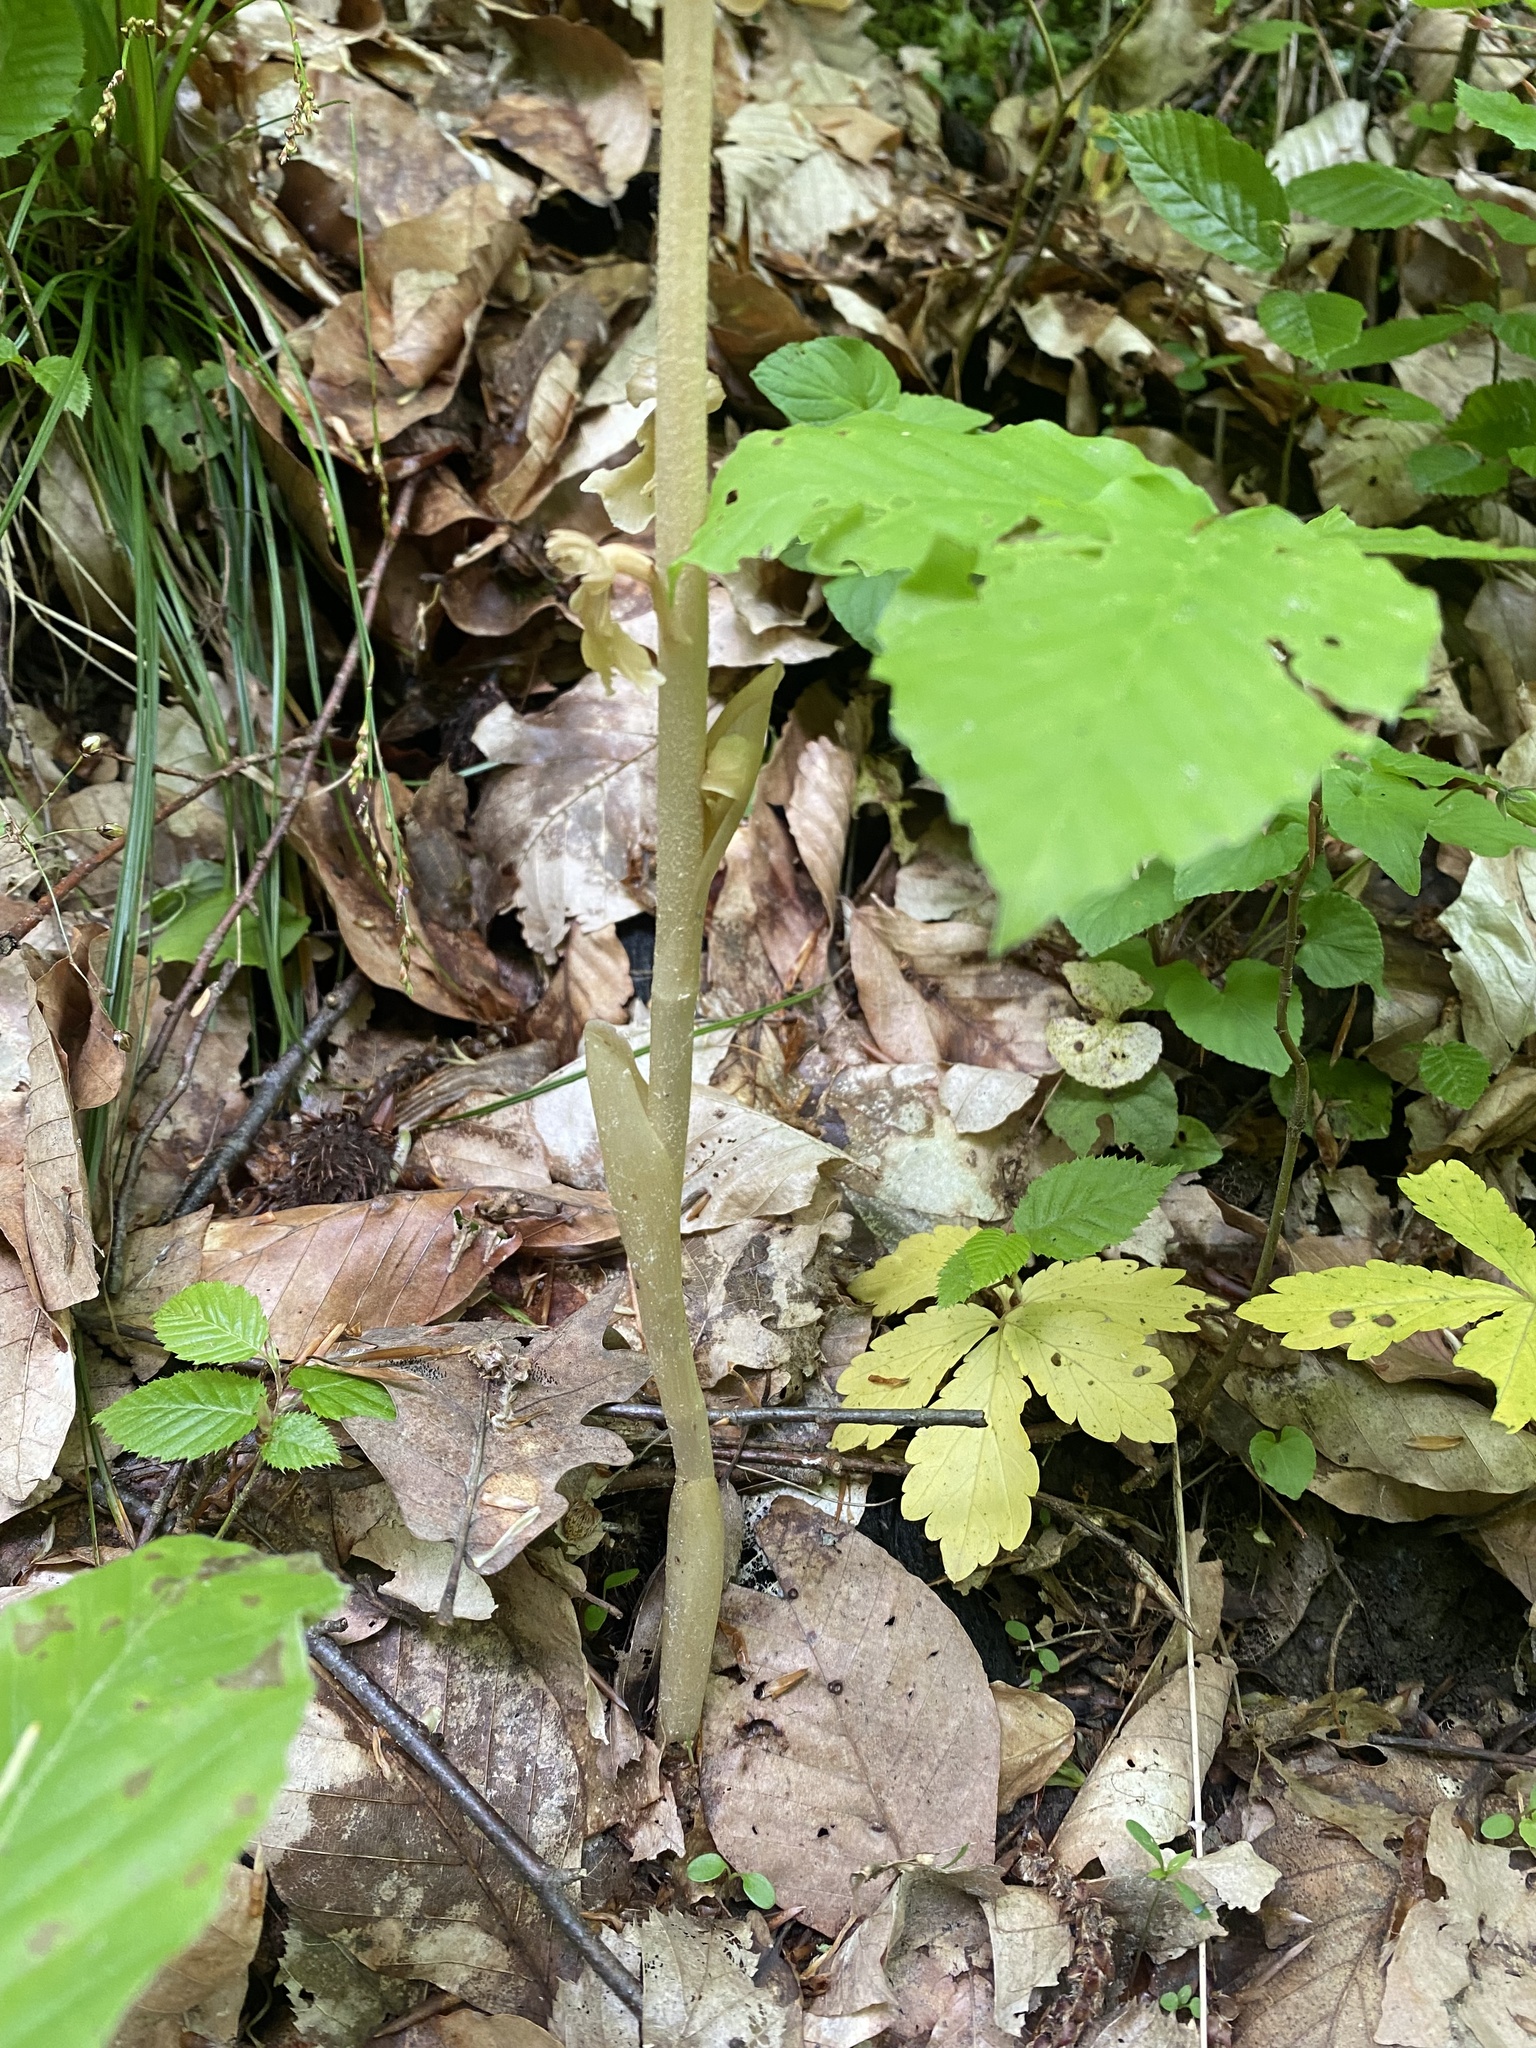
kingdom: Plantae
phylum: Tracheophyta
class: Liliopsida
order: Asparagales
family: Orchidaceae
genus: Neottia
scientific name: Neottia nidus-avis
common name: Bird's-nest orchid
